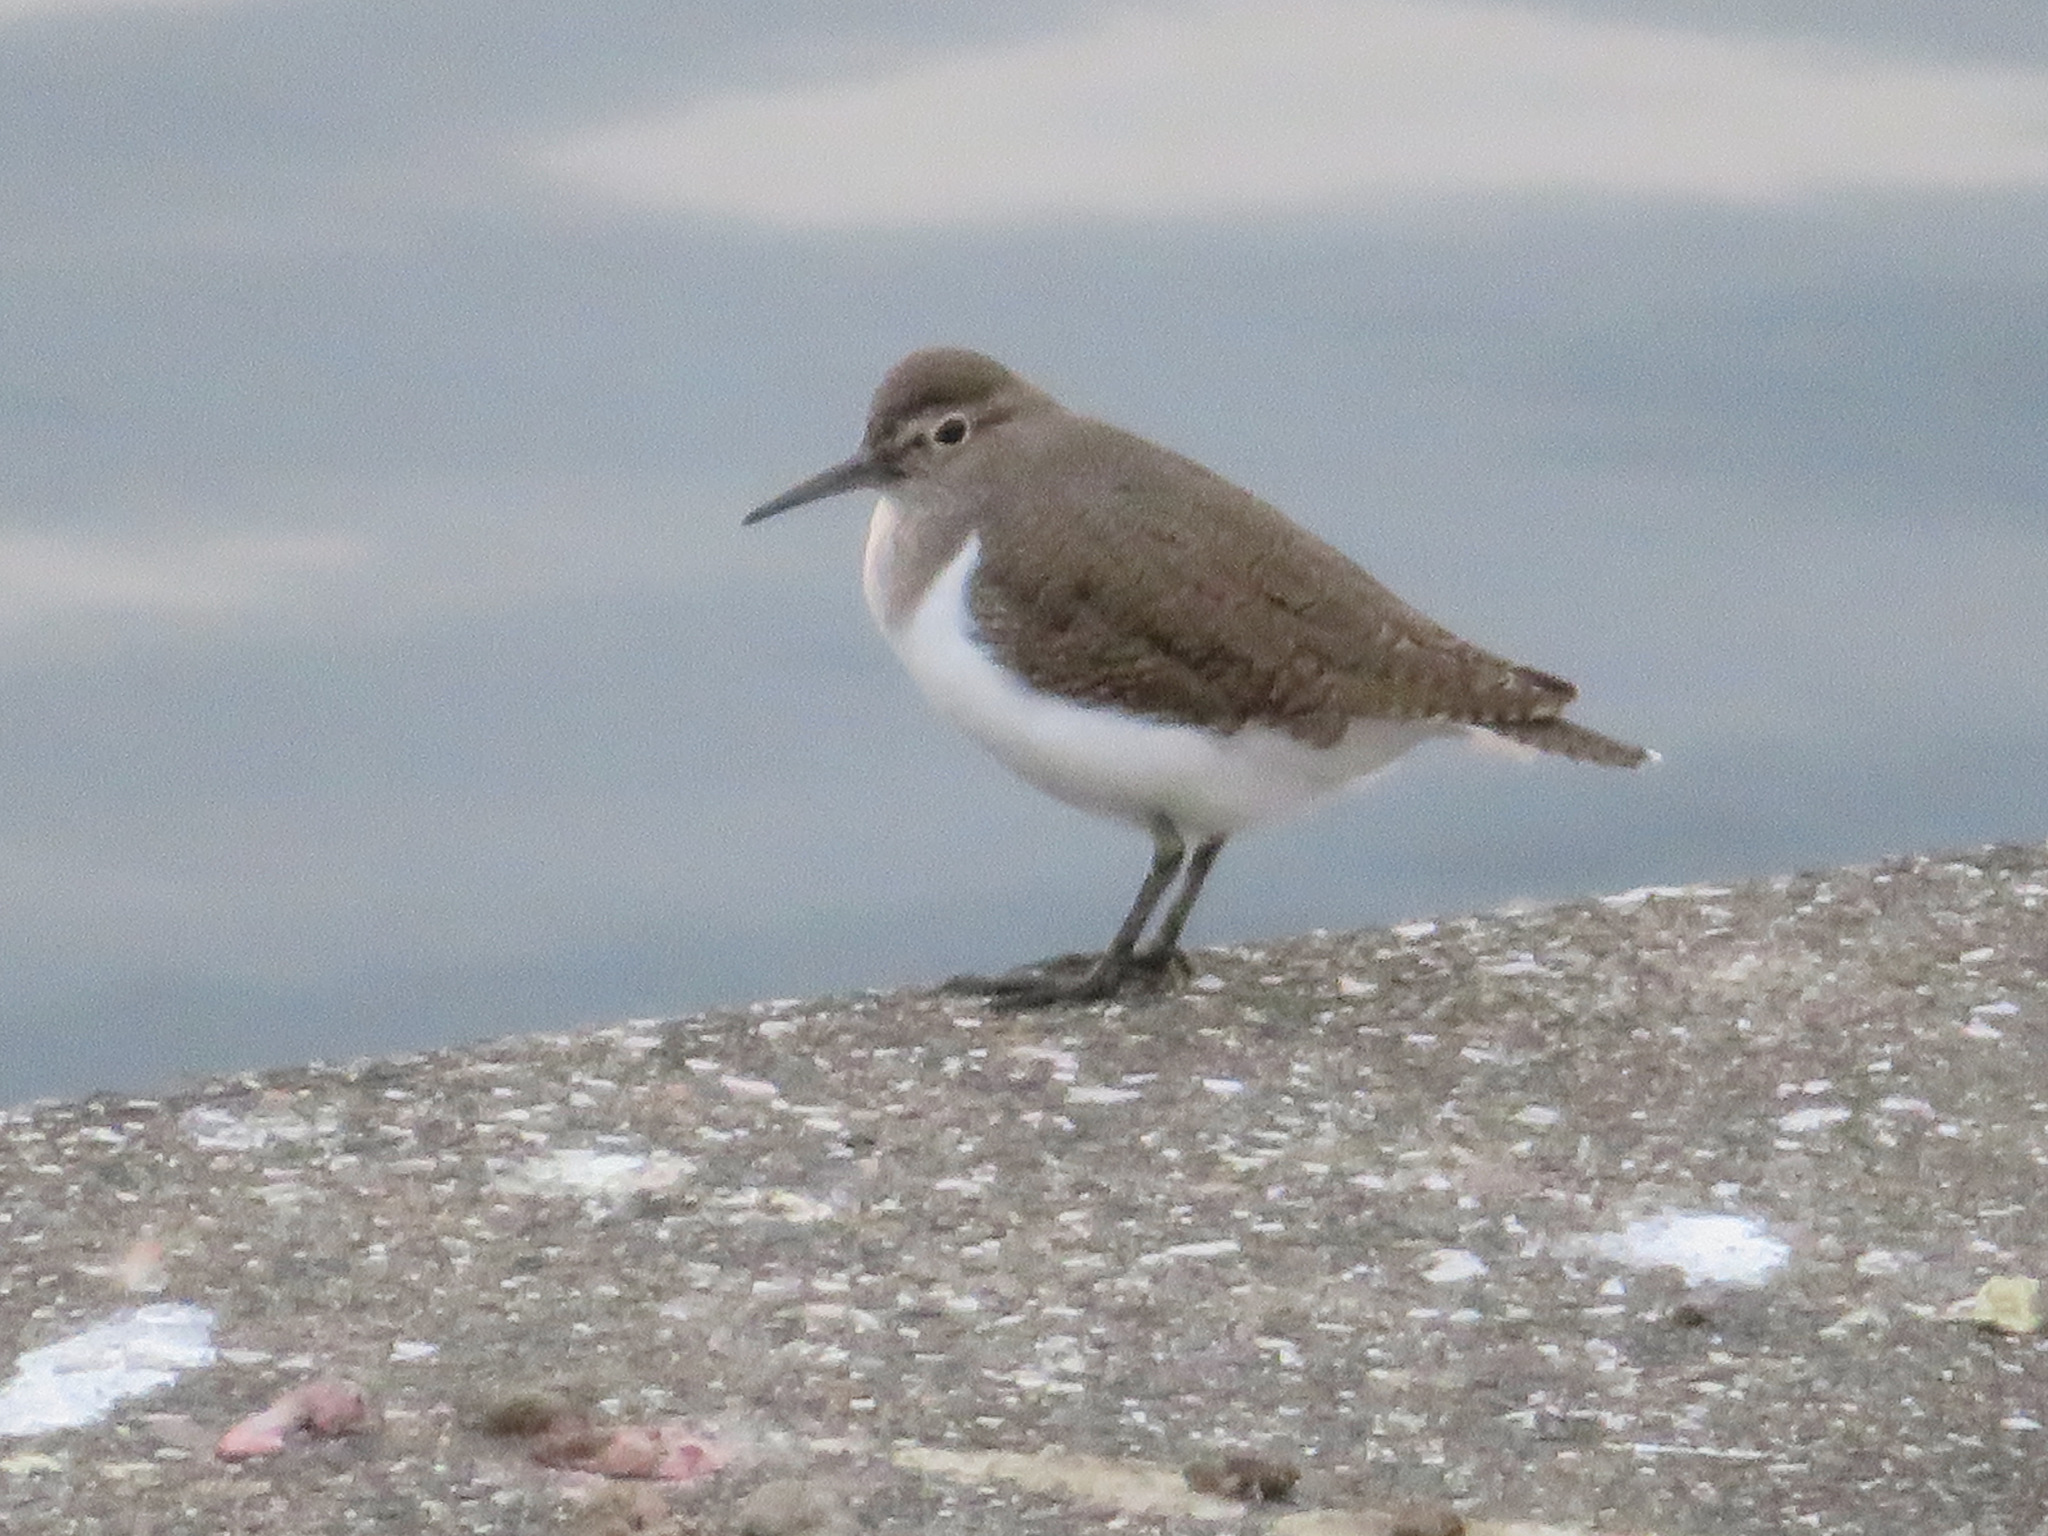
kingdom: Animalia
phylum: Chordata
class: Aves
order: Charadriiformes
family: Scolopacidae
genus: Actitis
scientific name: Actitis hypoleucos
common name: Common sandpiper
